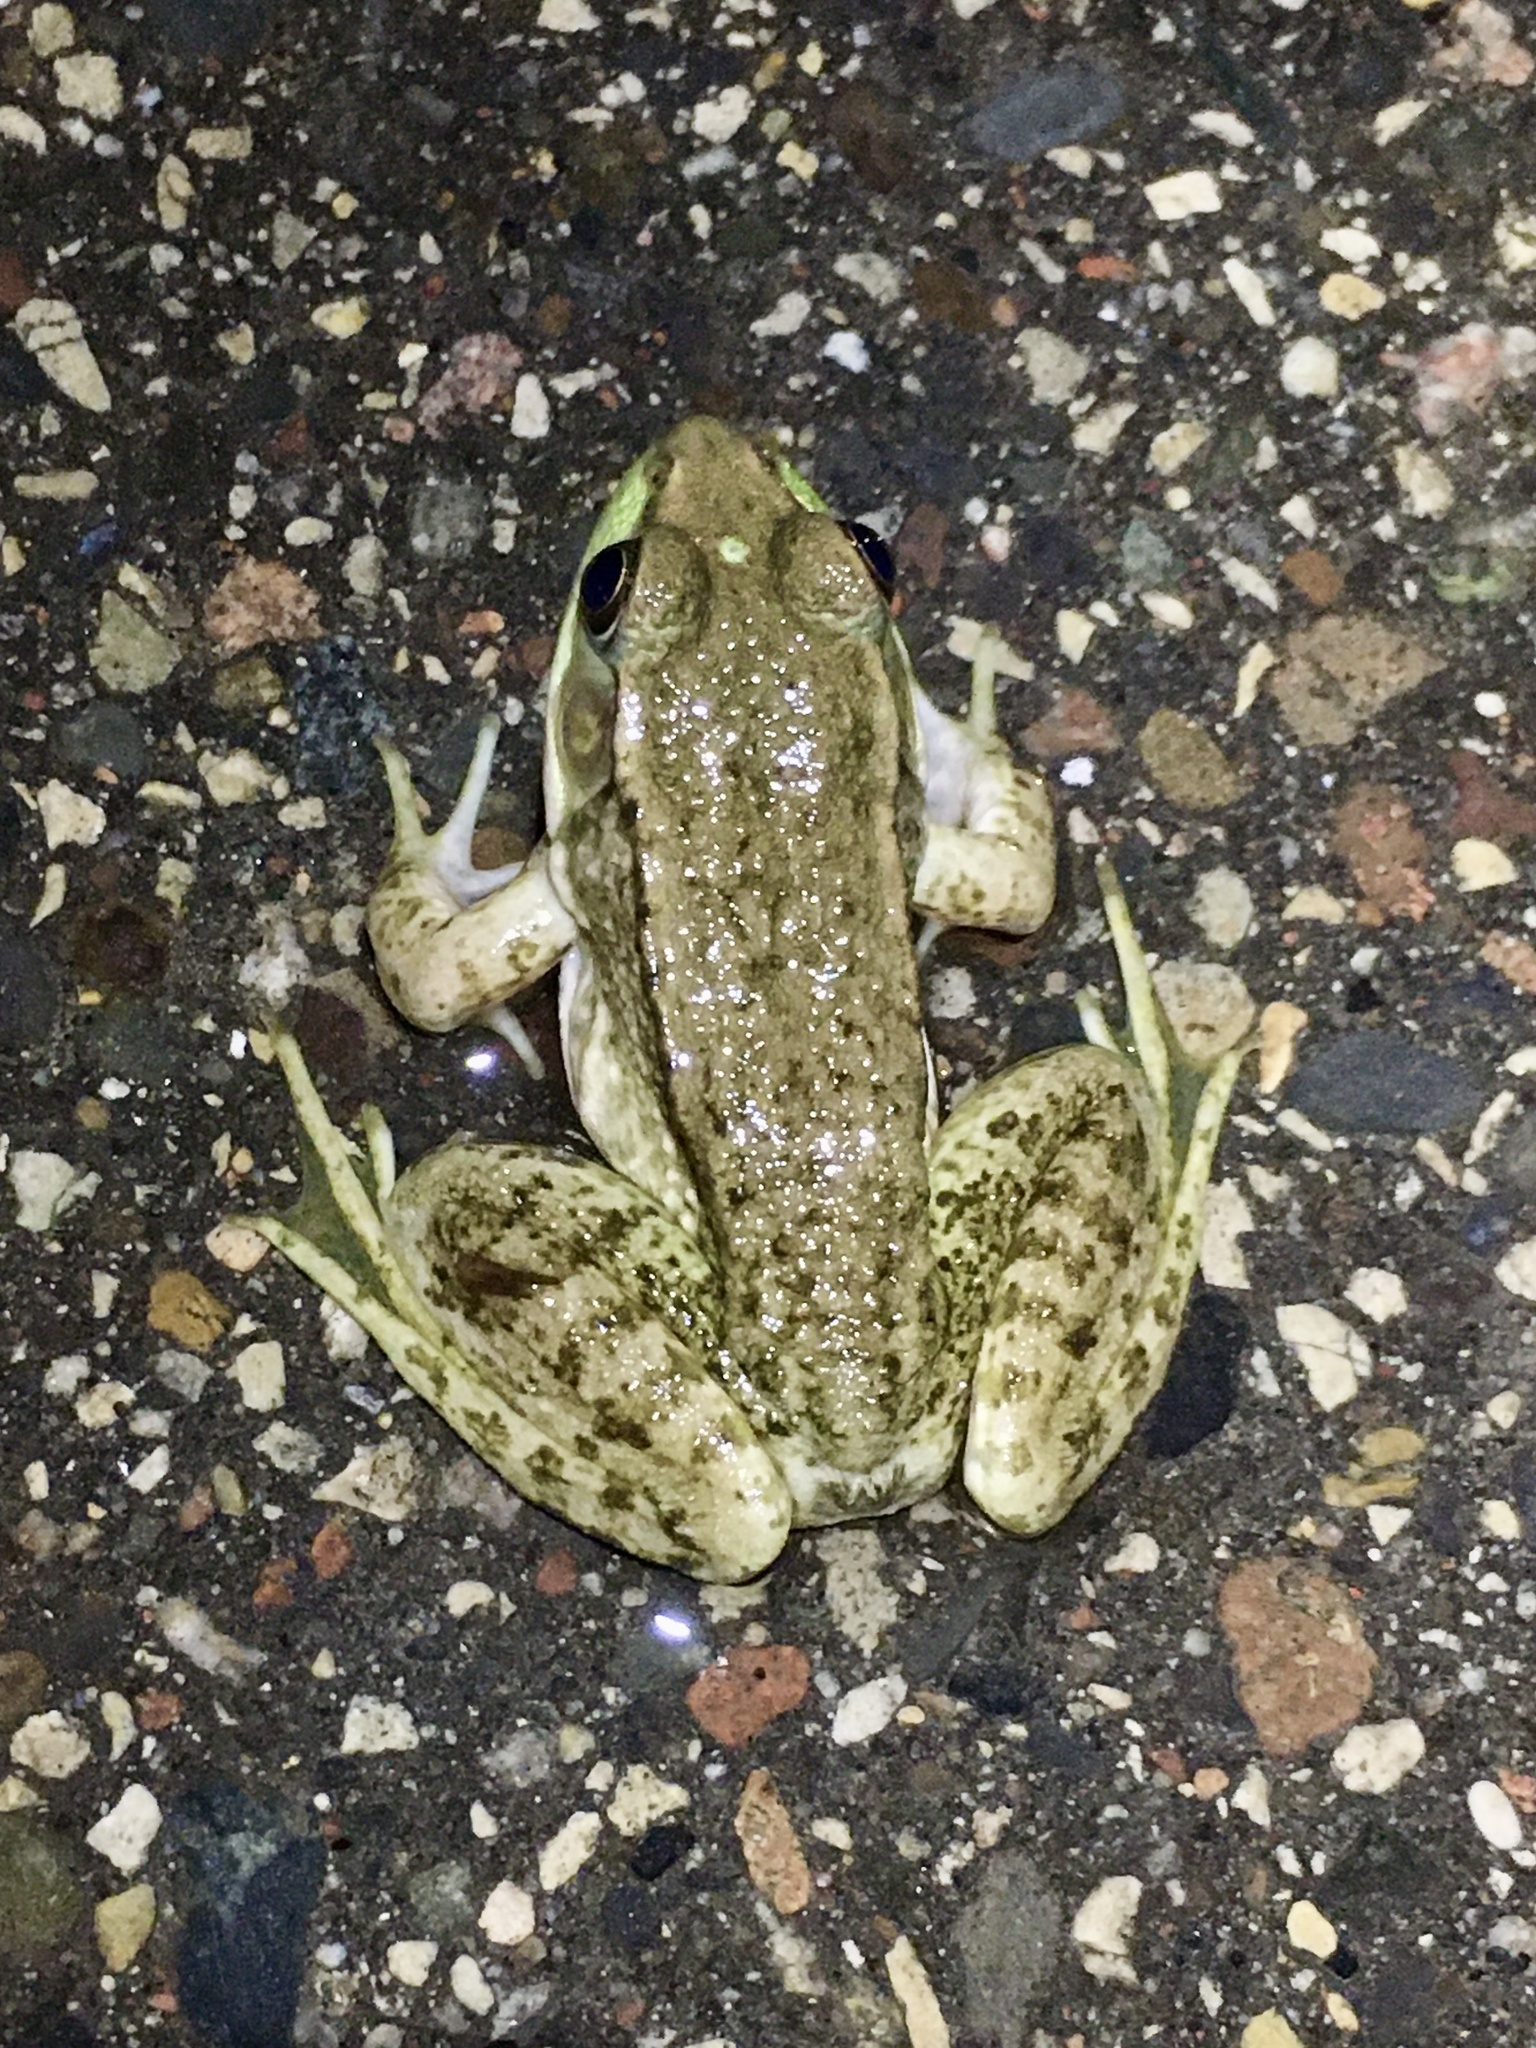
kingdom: Animalia
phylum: Chordata
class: Amphibia
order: Anura
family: Ranidae
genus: Lithobates
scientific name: Lithobates clamitans
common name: Green frog
